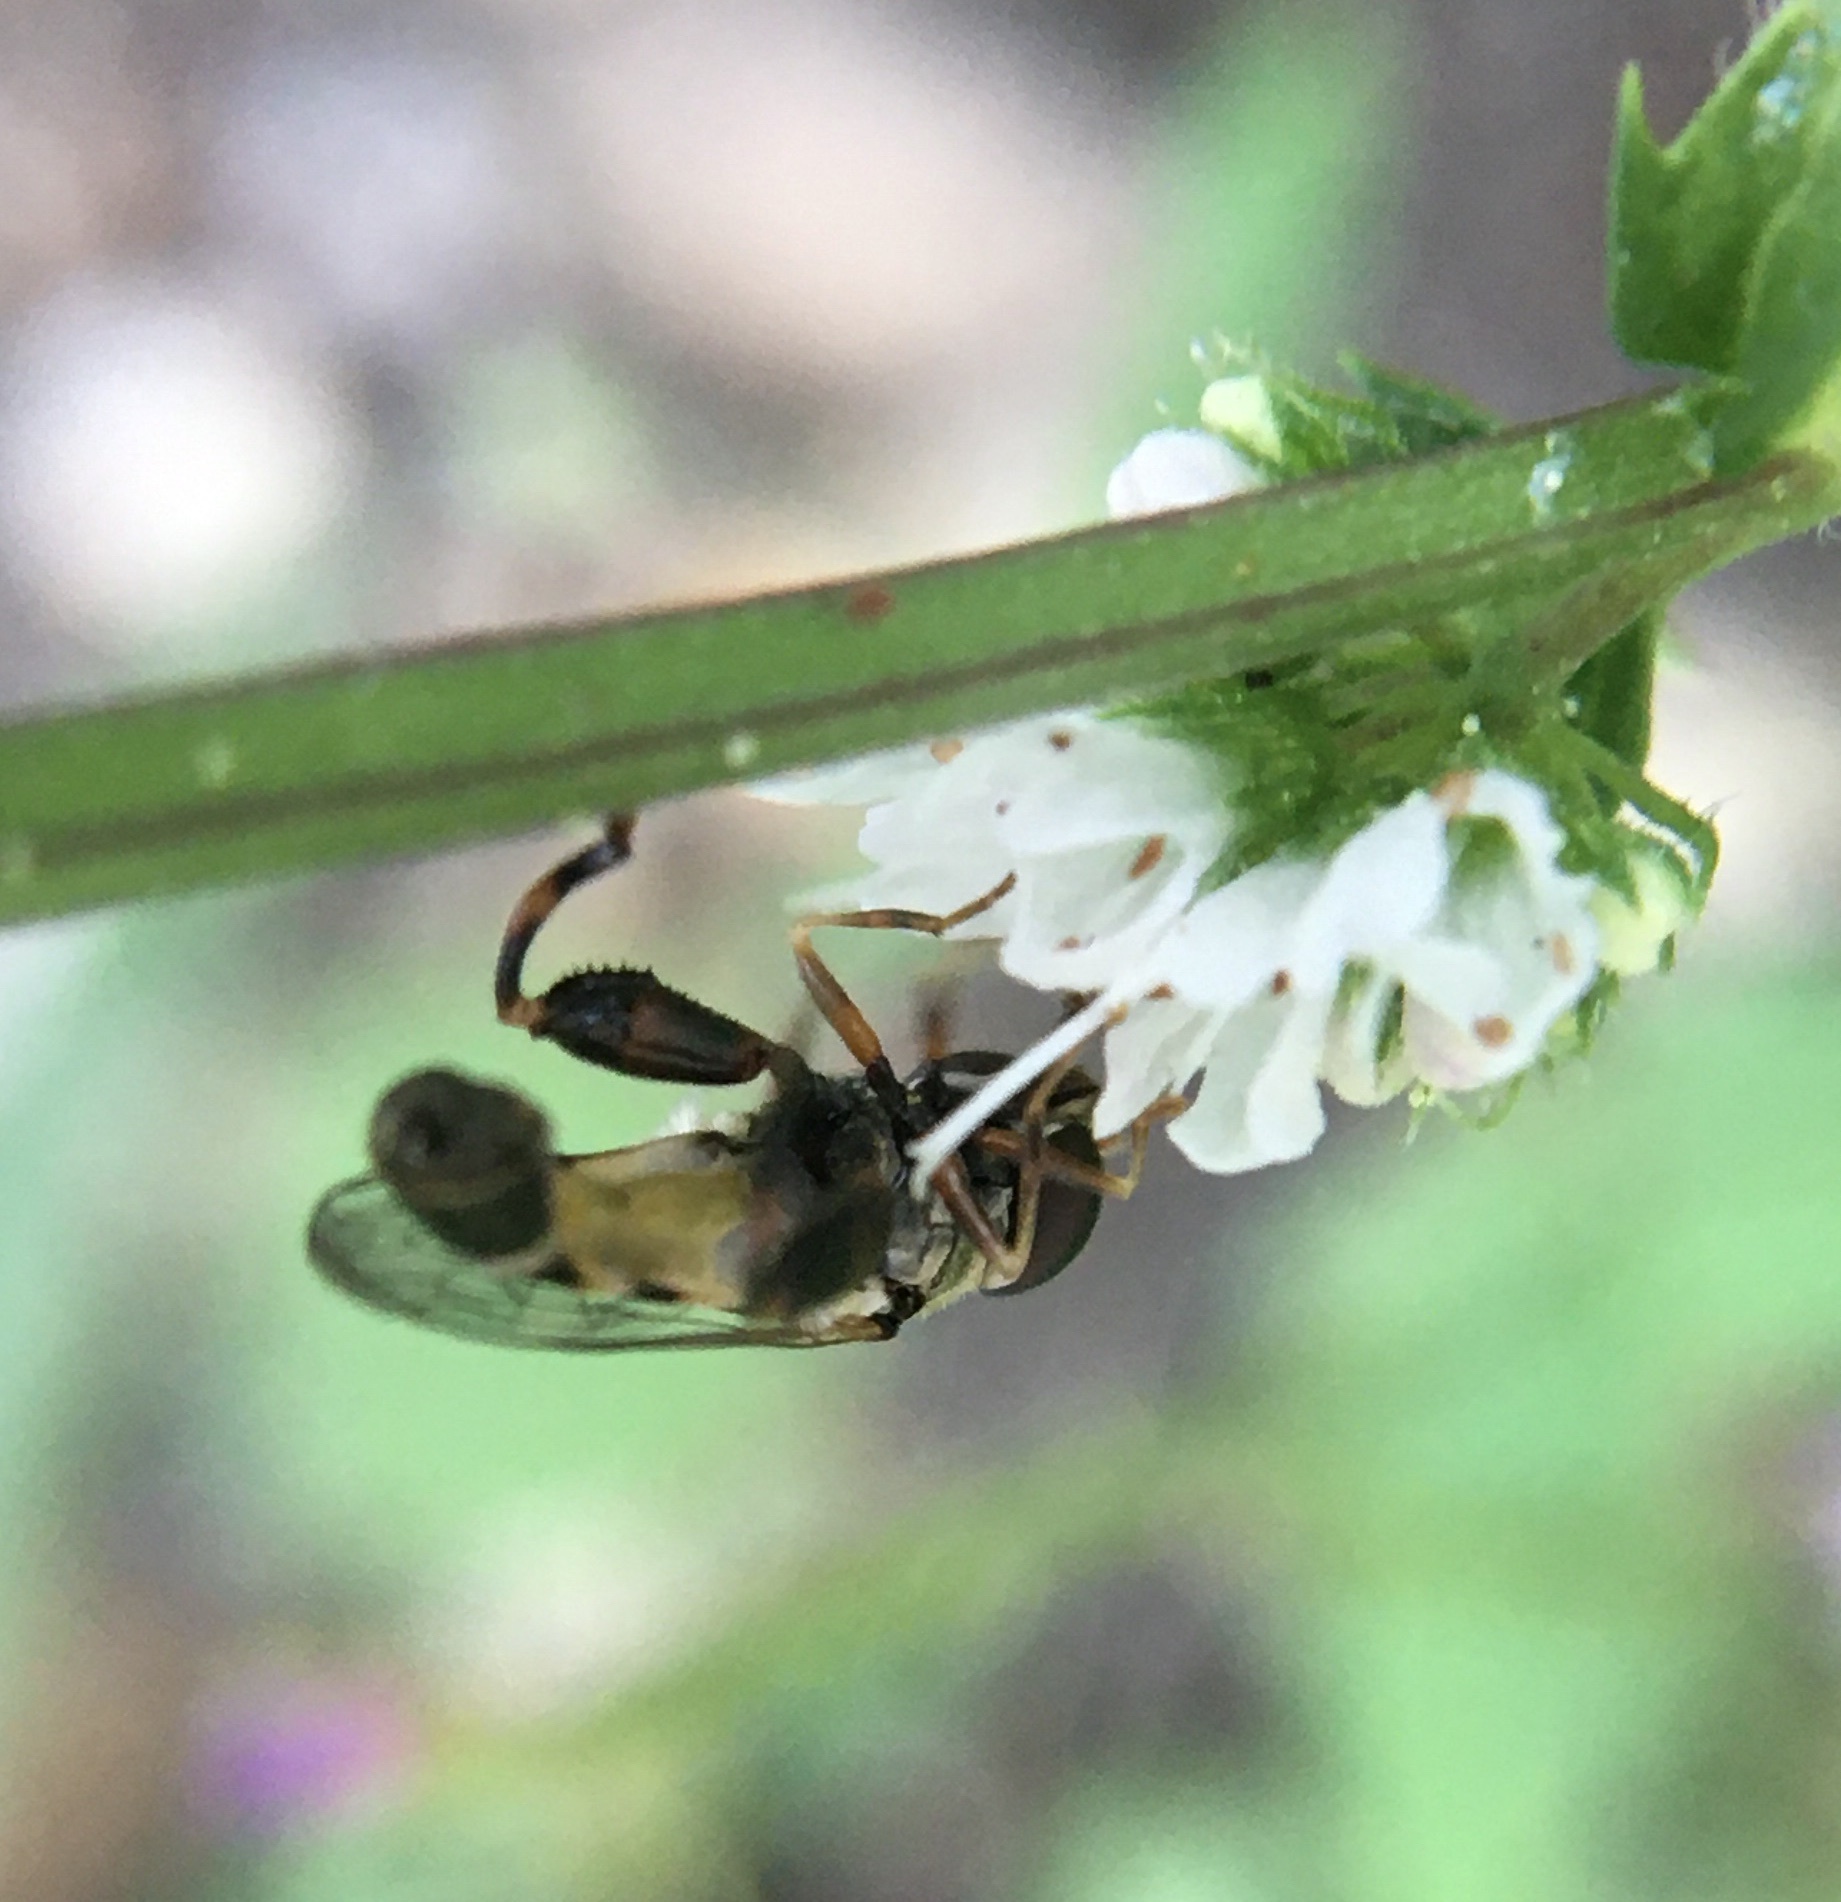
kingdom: Animalia
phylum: Arthropoda
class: Insecta
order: Diptera
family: Syrphidae
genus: Syritta
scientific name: Syritta pipiens
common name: Hover fly
